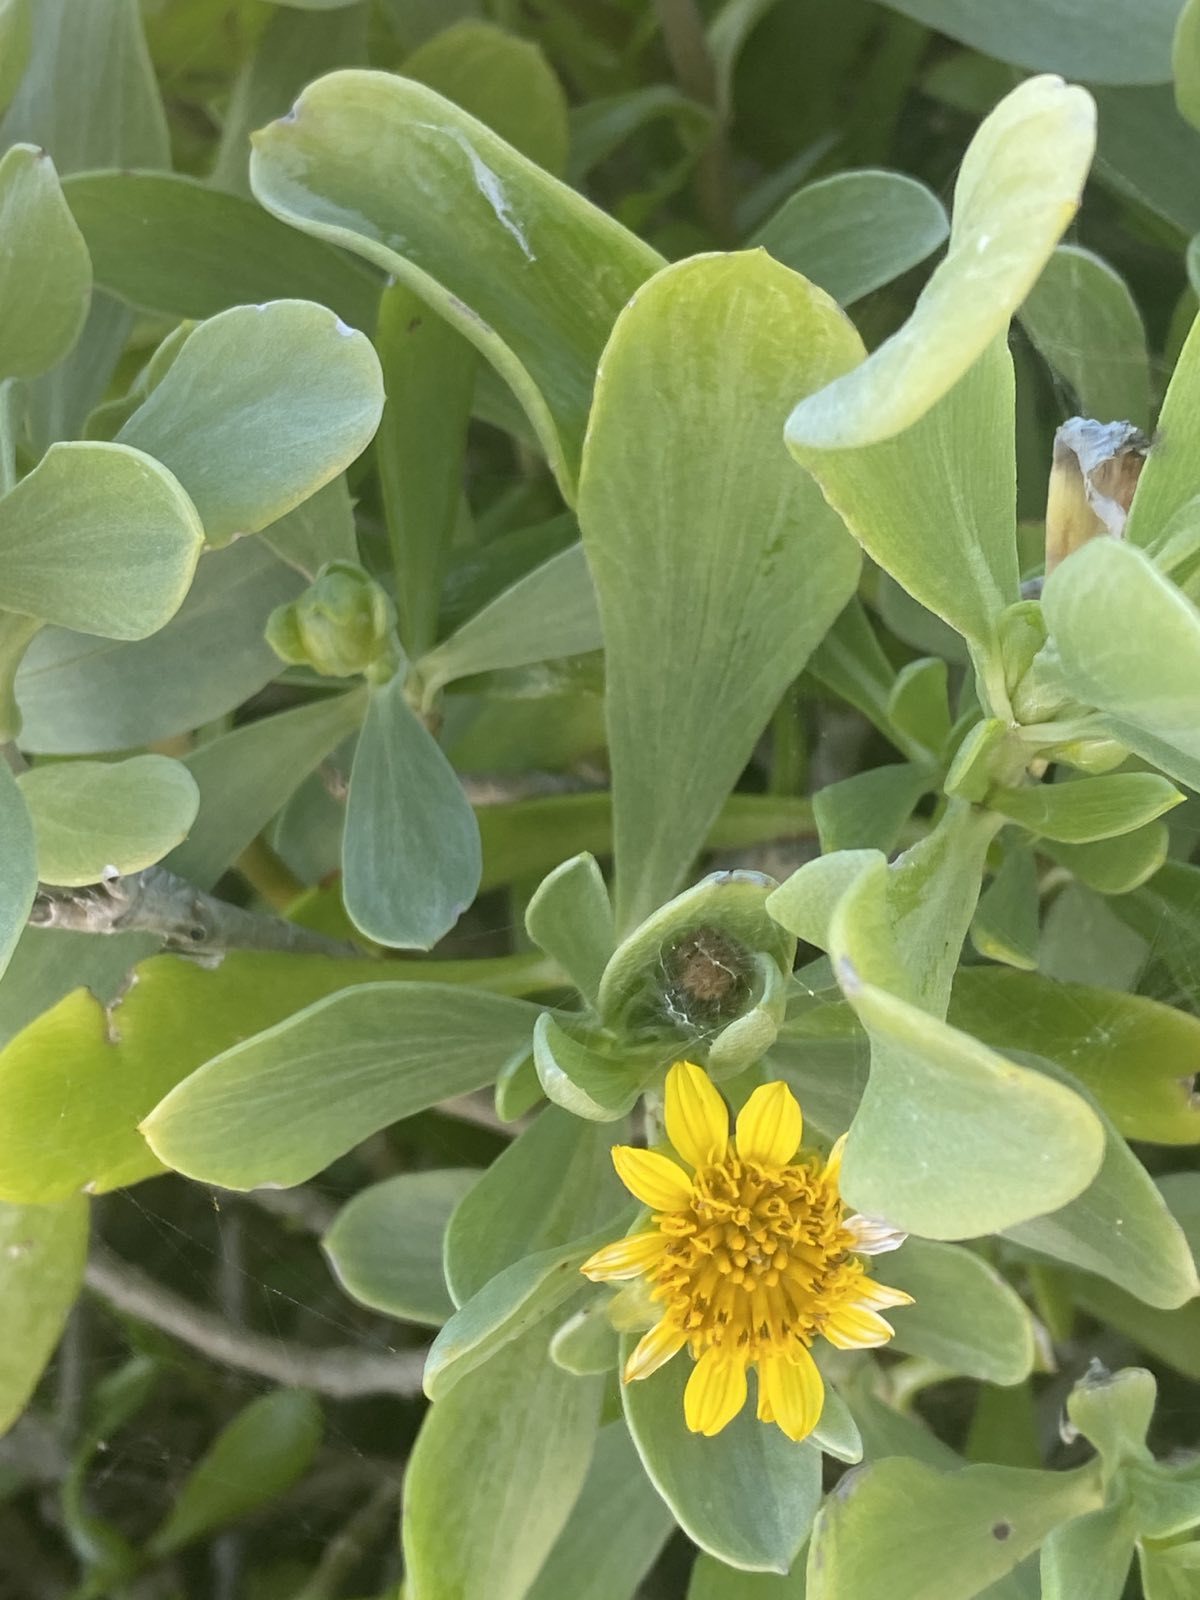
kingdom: Plantae
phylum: Tracheophyta
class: Magnoliopsida
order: Asterales
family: Asteraceae
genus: Borrichia
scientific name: Borrichia frutescens
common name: Sea oxeye
